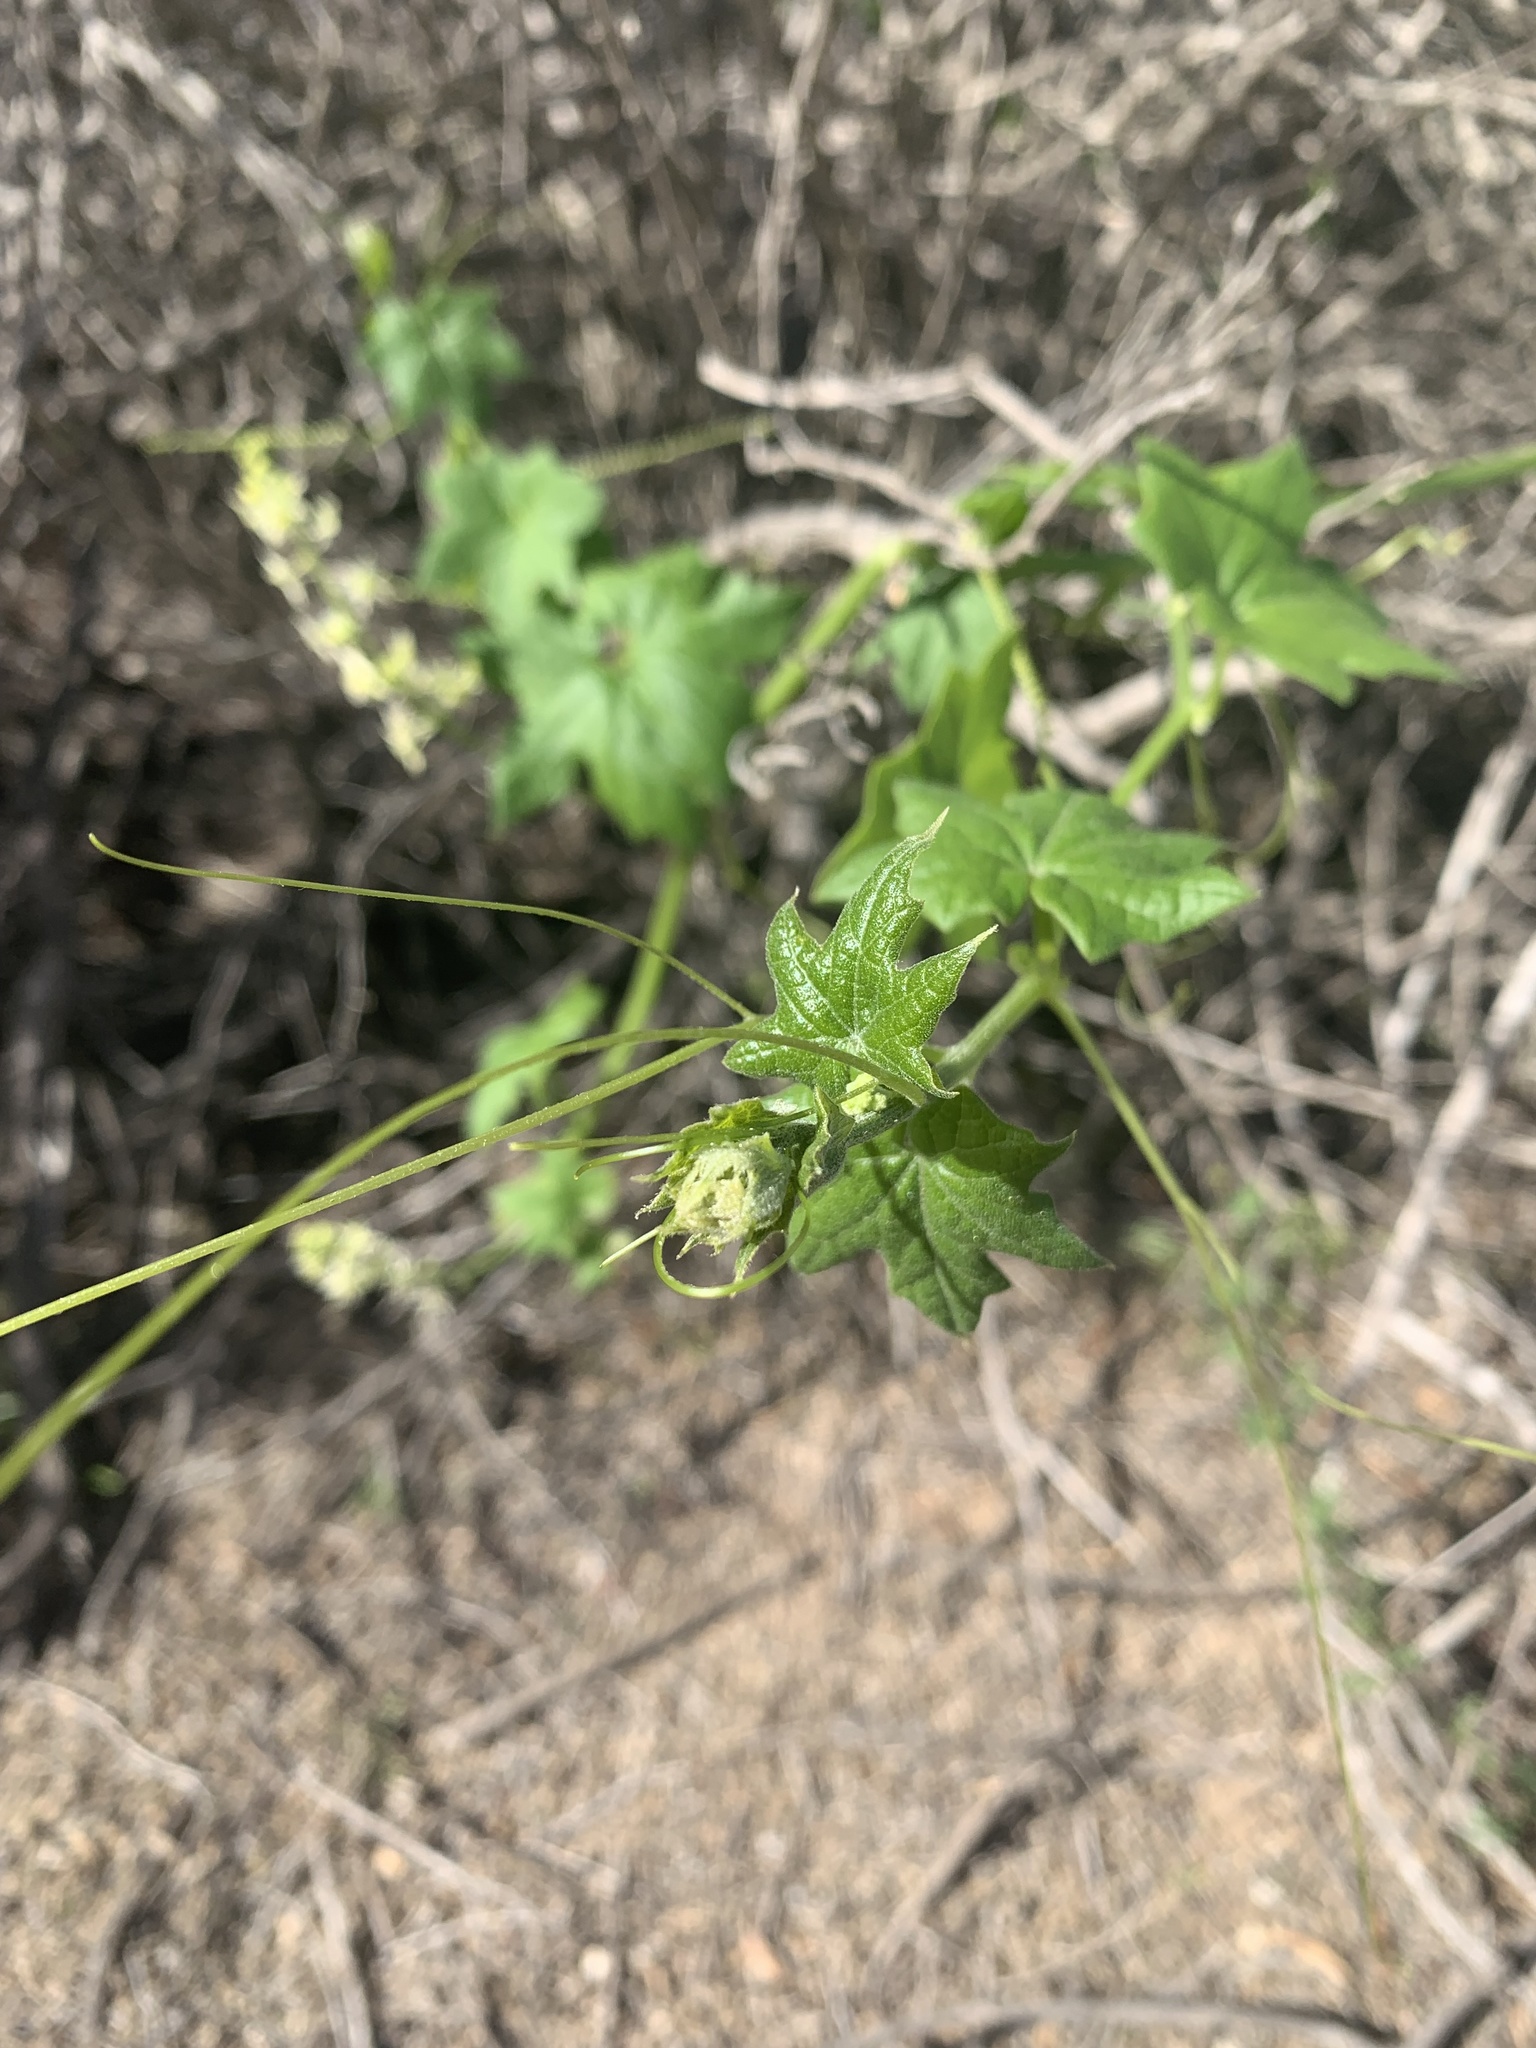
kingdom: Plantae
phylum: Tracheophyta
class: Magnoliopsida
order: Cucurbitales
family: Cucurbitaceae
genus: Marah
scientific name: Marah fabacea
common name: California manroot
